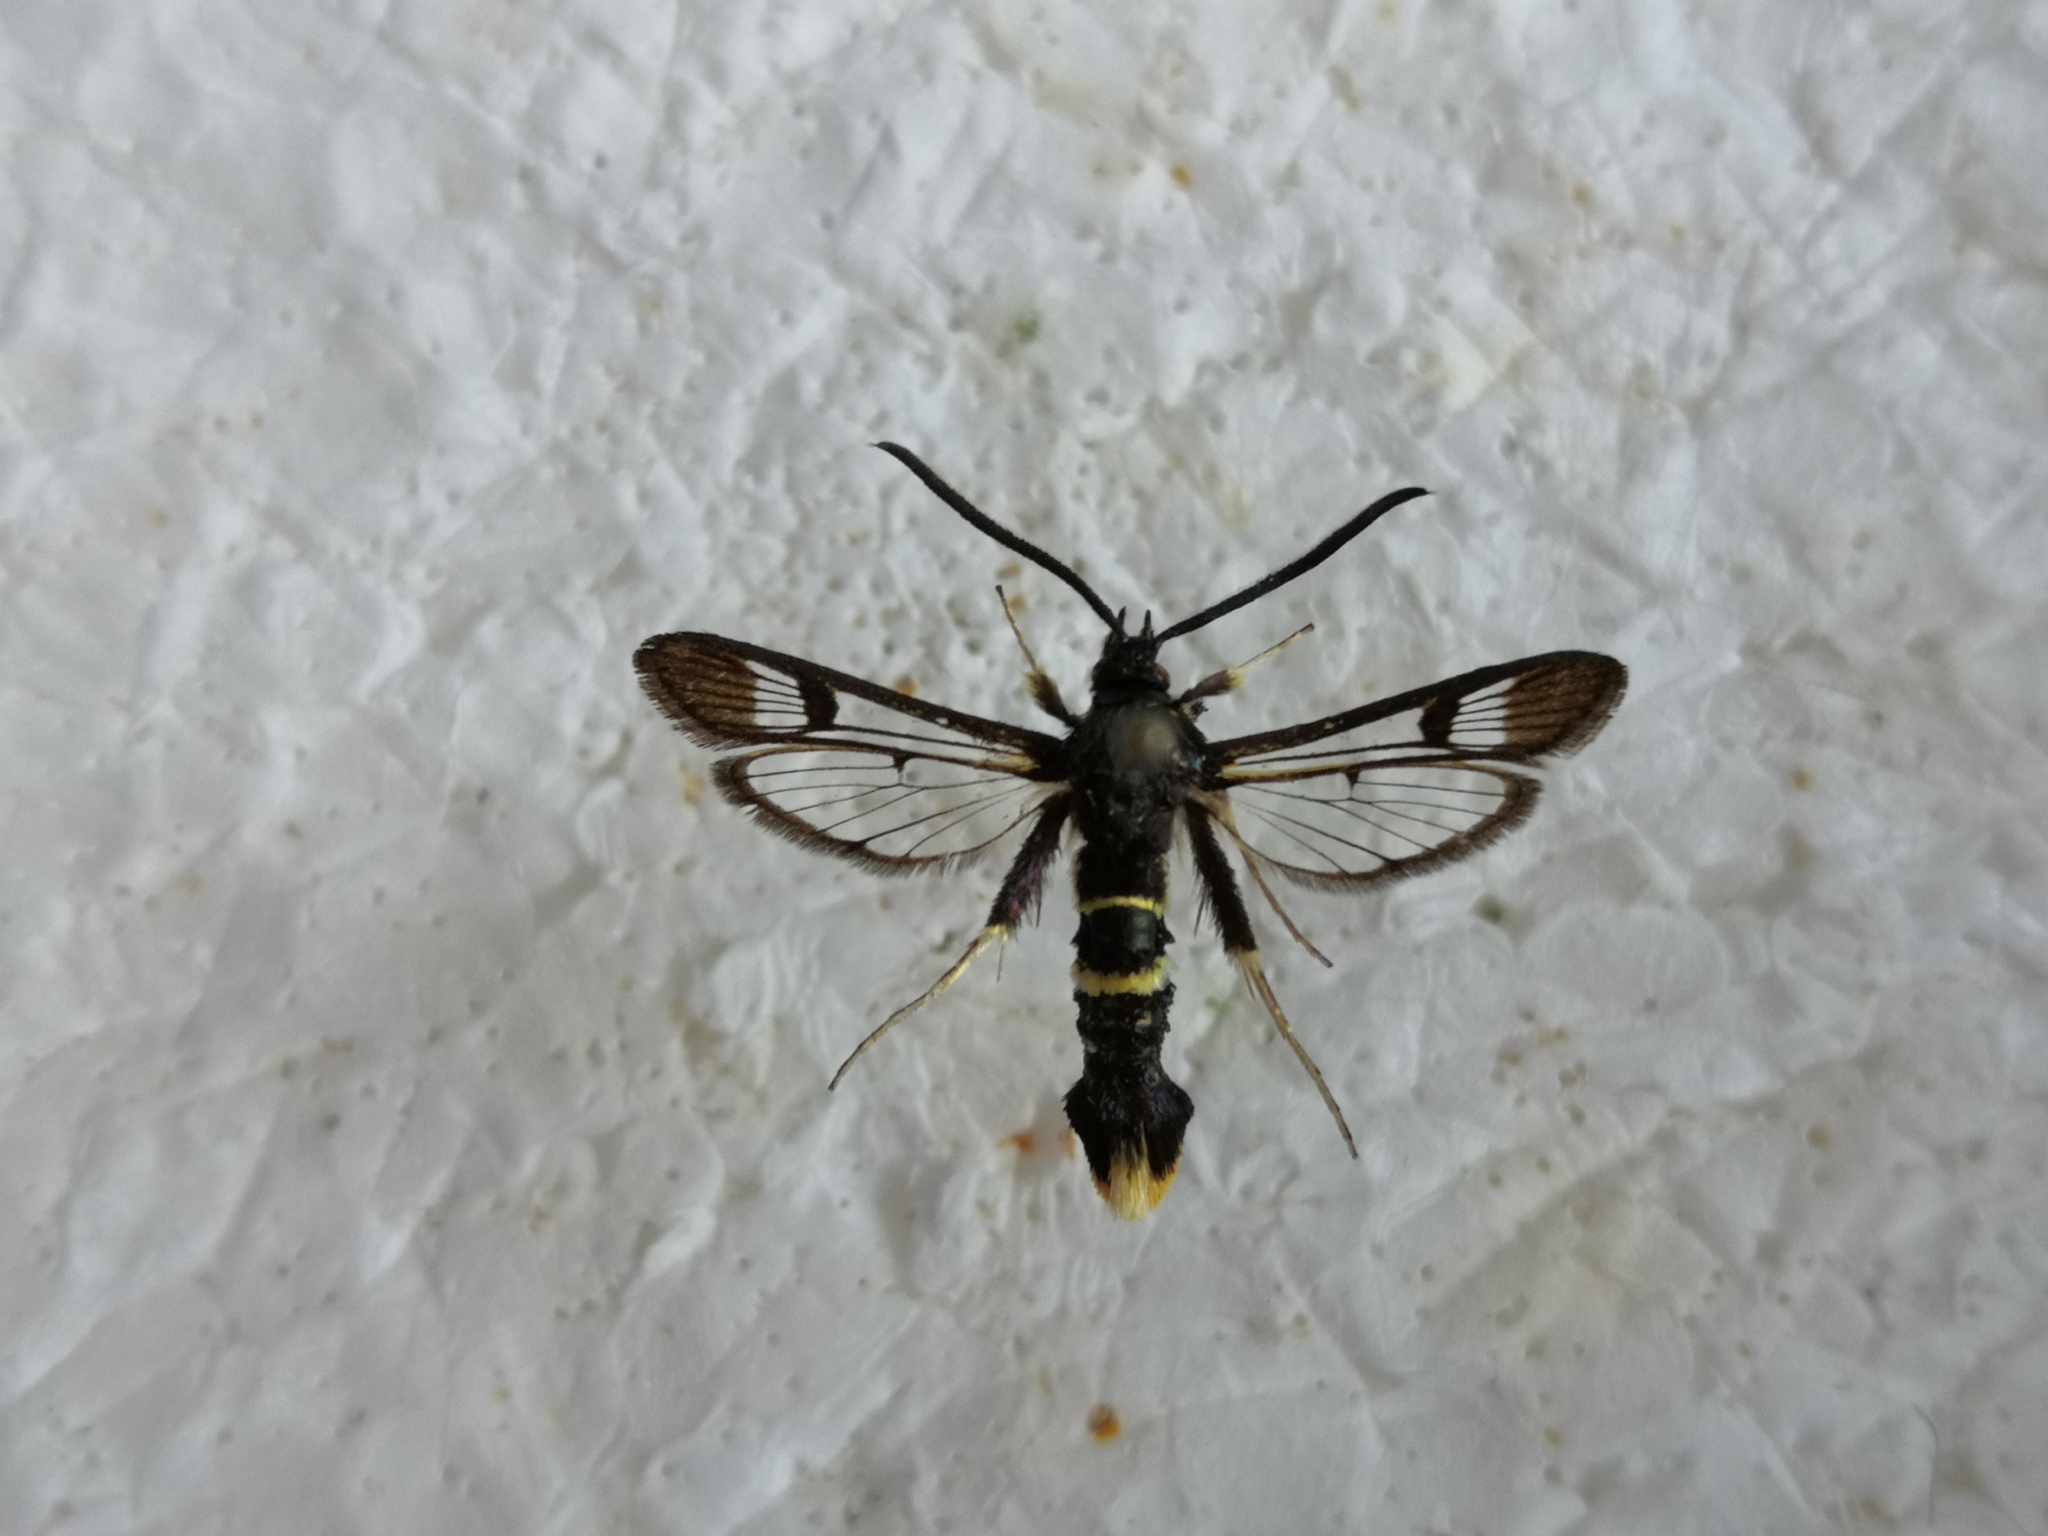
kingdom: Animalia
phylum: Arthropoda
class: Insecta
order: Lepidoptera
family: Sesiidae
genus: Synanthedon
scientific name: Synanthedon andrenaeformis
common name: Orange-tailed clearwing
